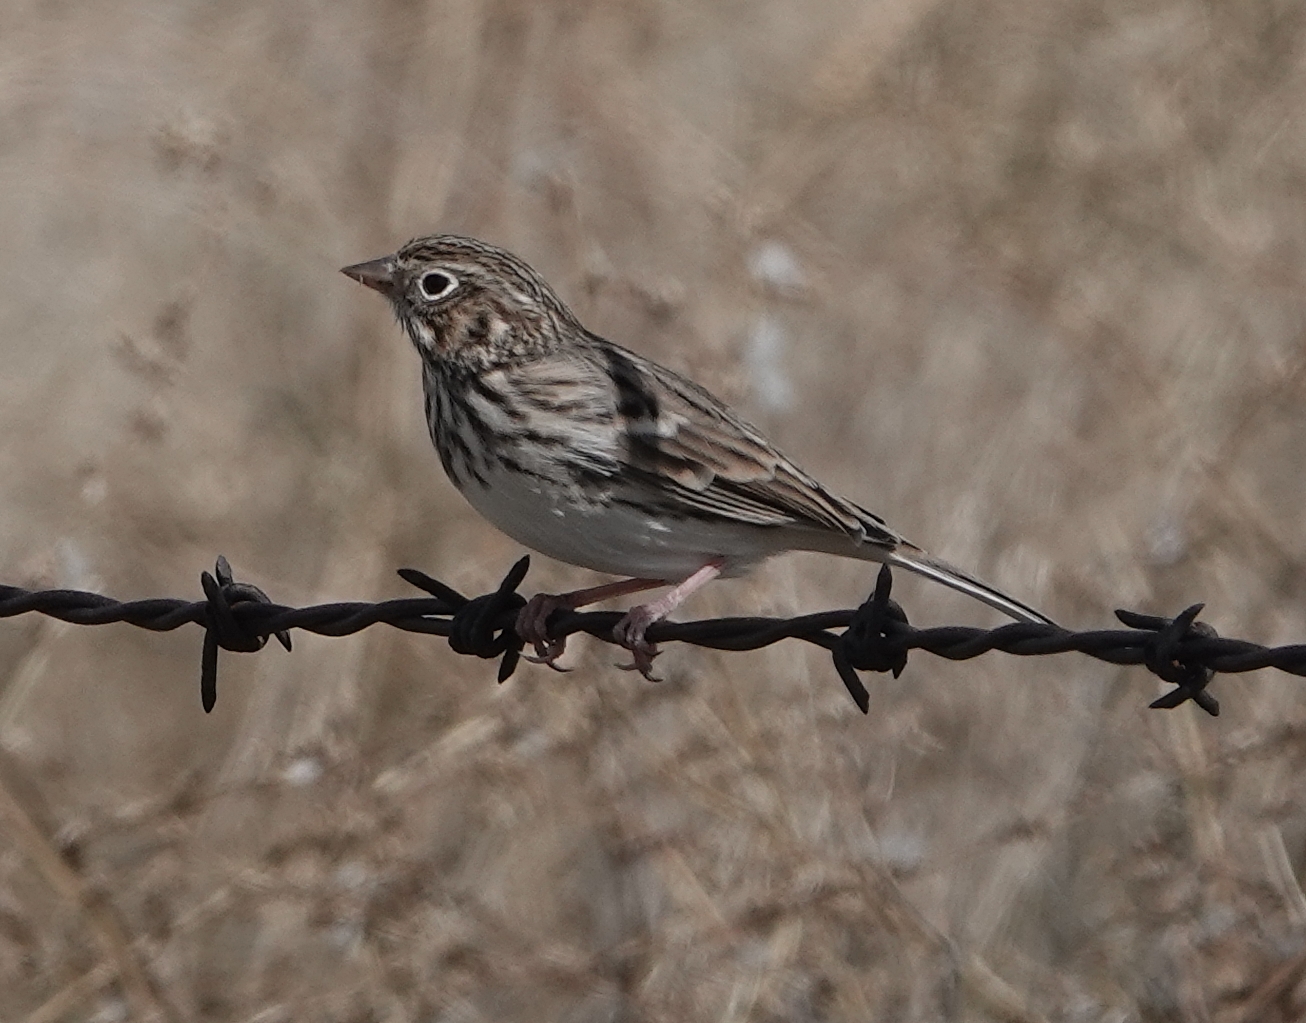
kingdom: Animalia
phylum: Chordata
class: Aves
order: Passeriformes
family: Passerellidae
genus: Pooecetes
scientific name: Pooecetes gramineus
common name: Vesper sparrow
